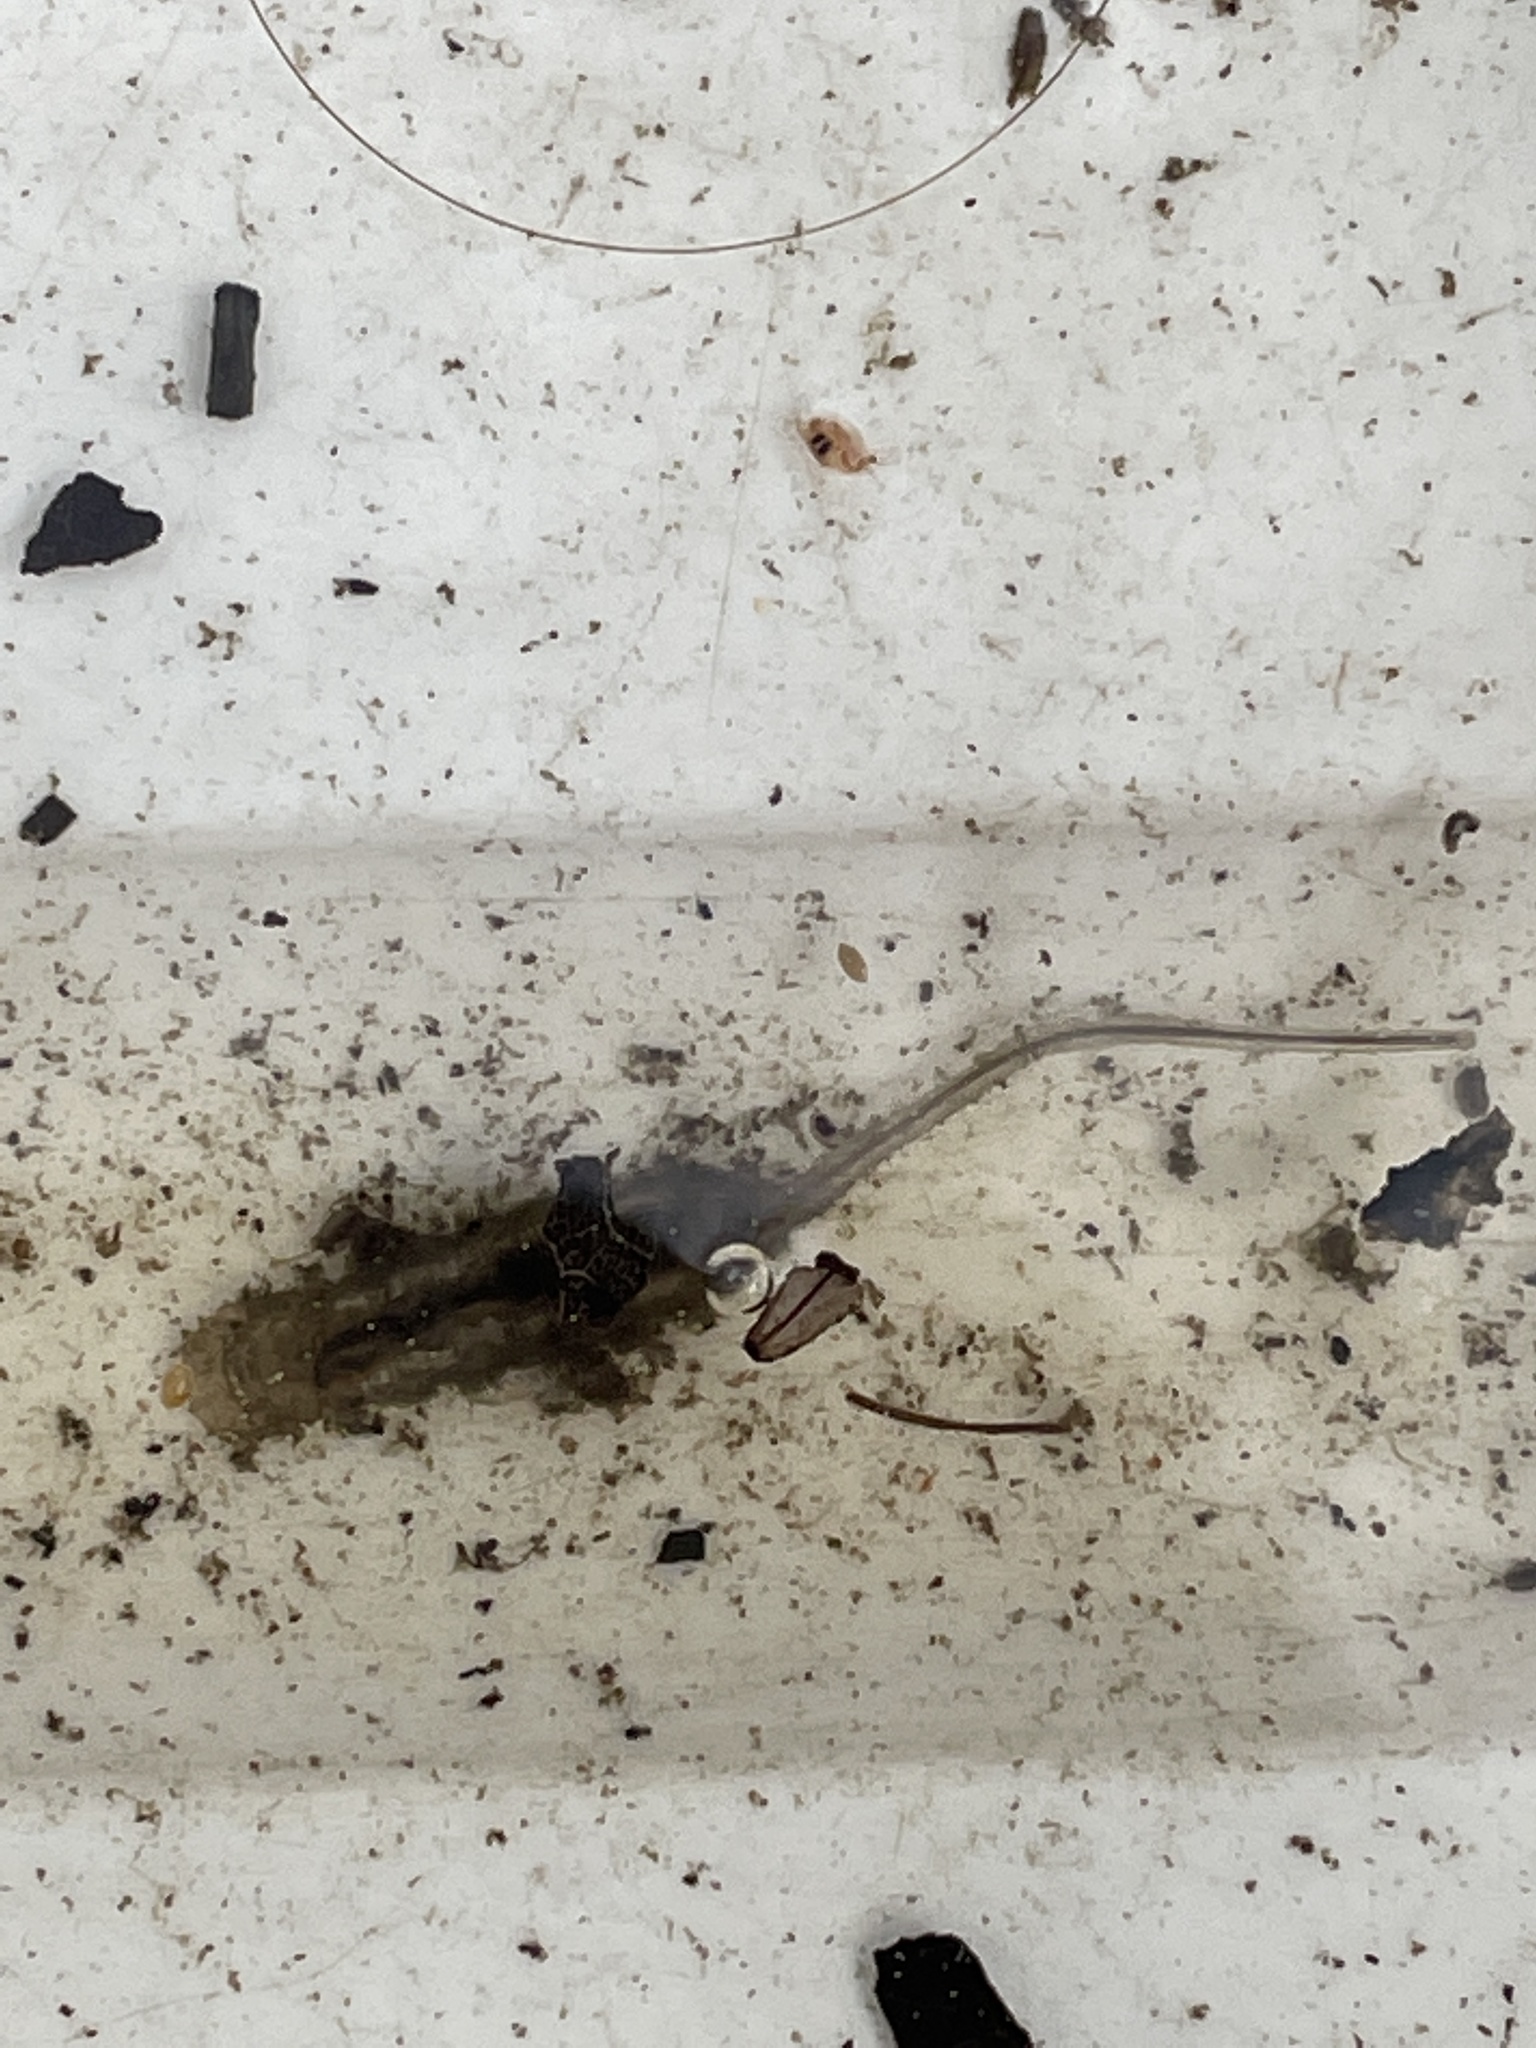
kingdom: Animalia
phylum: Arthropoda
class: Insecta
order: Diptera
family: Syrphidae
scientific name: Syrphidae
